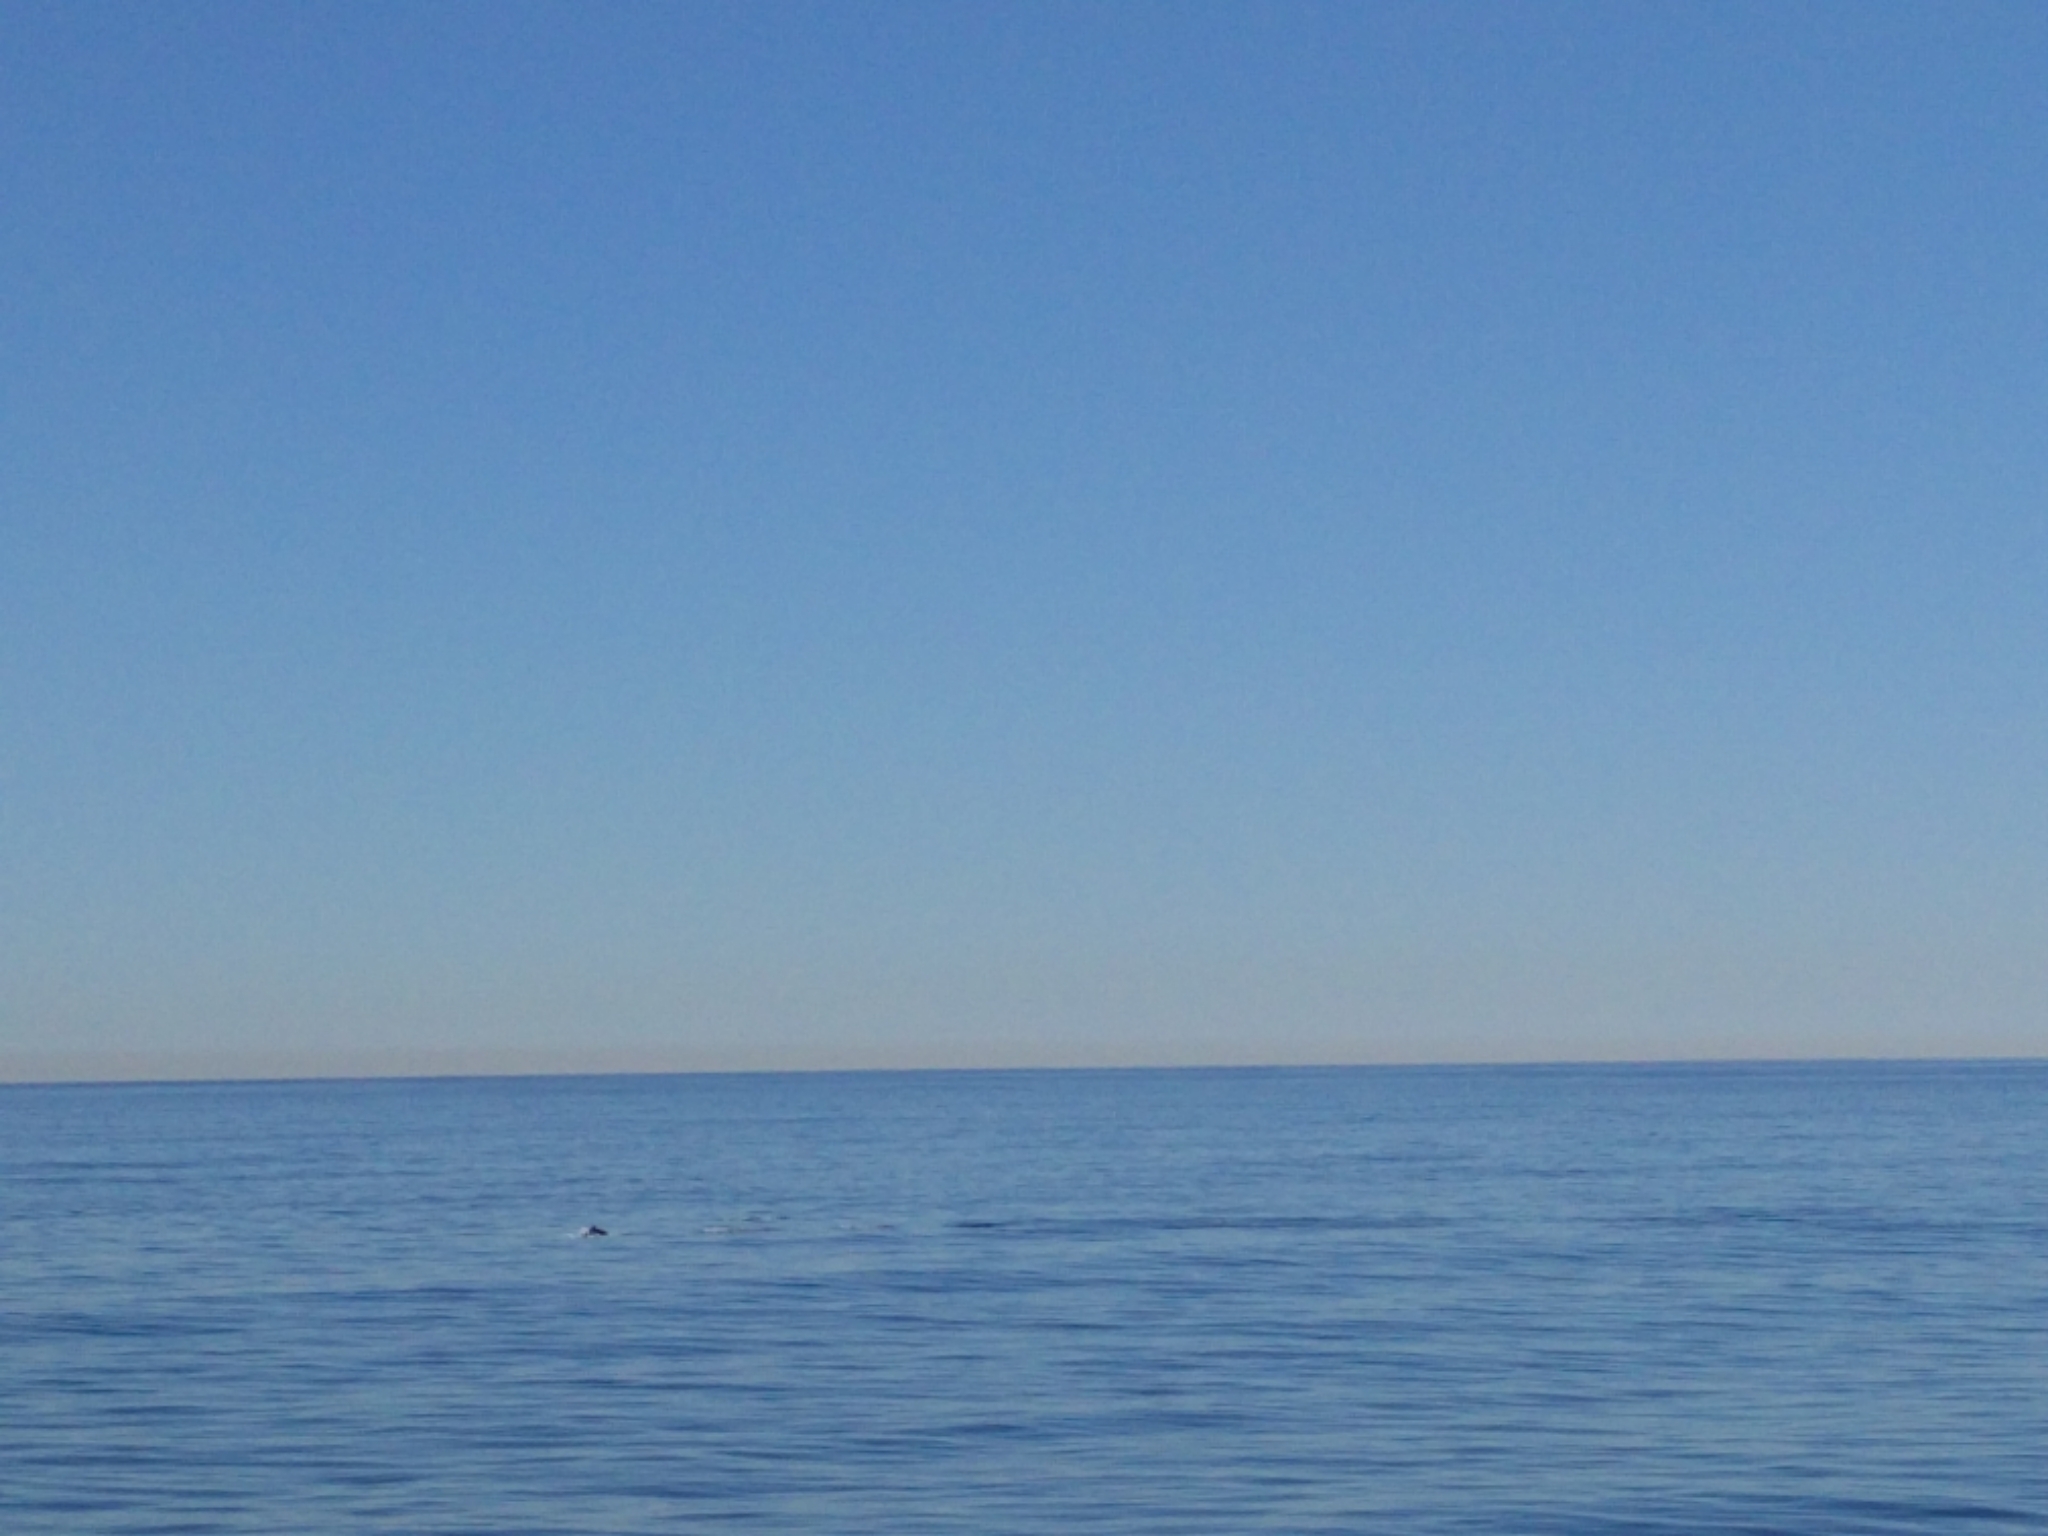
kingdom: Animalia
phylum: Chordata
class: Mammalia
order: Cetacea
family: Delphinidae
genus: Lagenorhynchus
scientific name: Lagenorhynchus obliquidens
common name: Pacific white-sided dolphin
